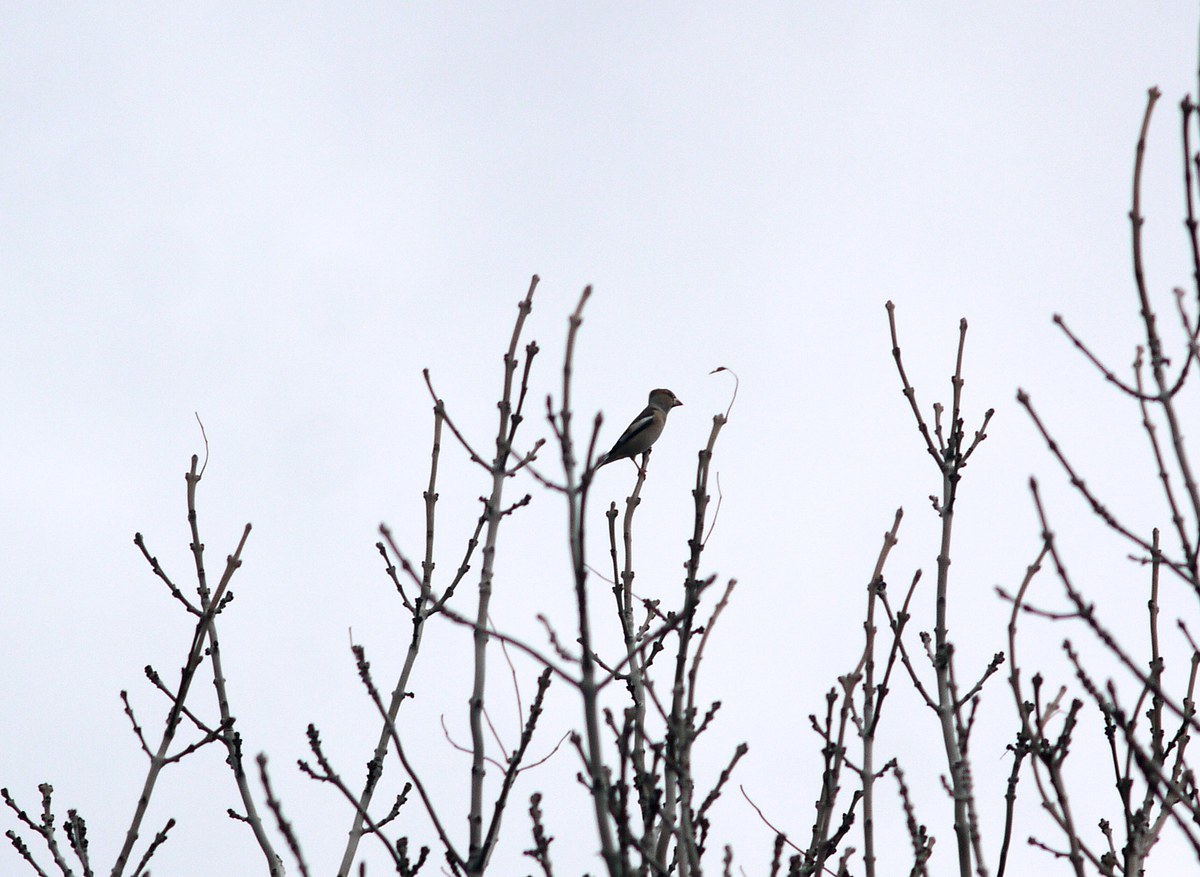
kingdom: Animalia
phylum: Chordata
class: Aves
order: Passeriformes
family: Fringillidae
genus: Coccothraustes
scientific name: Coccothraustes coccothraustes
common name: Hawfinch
